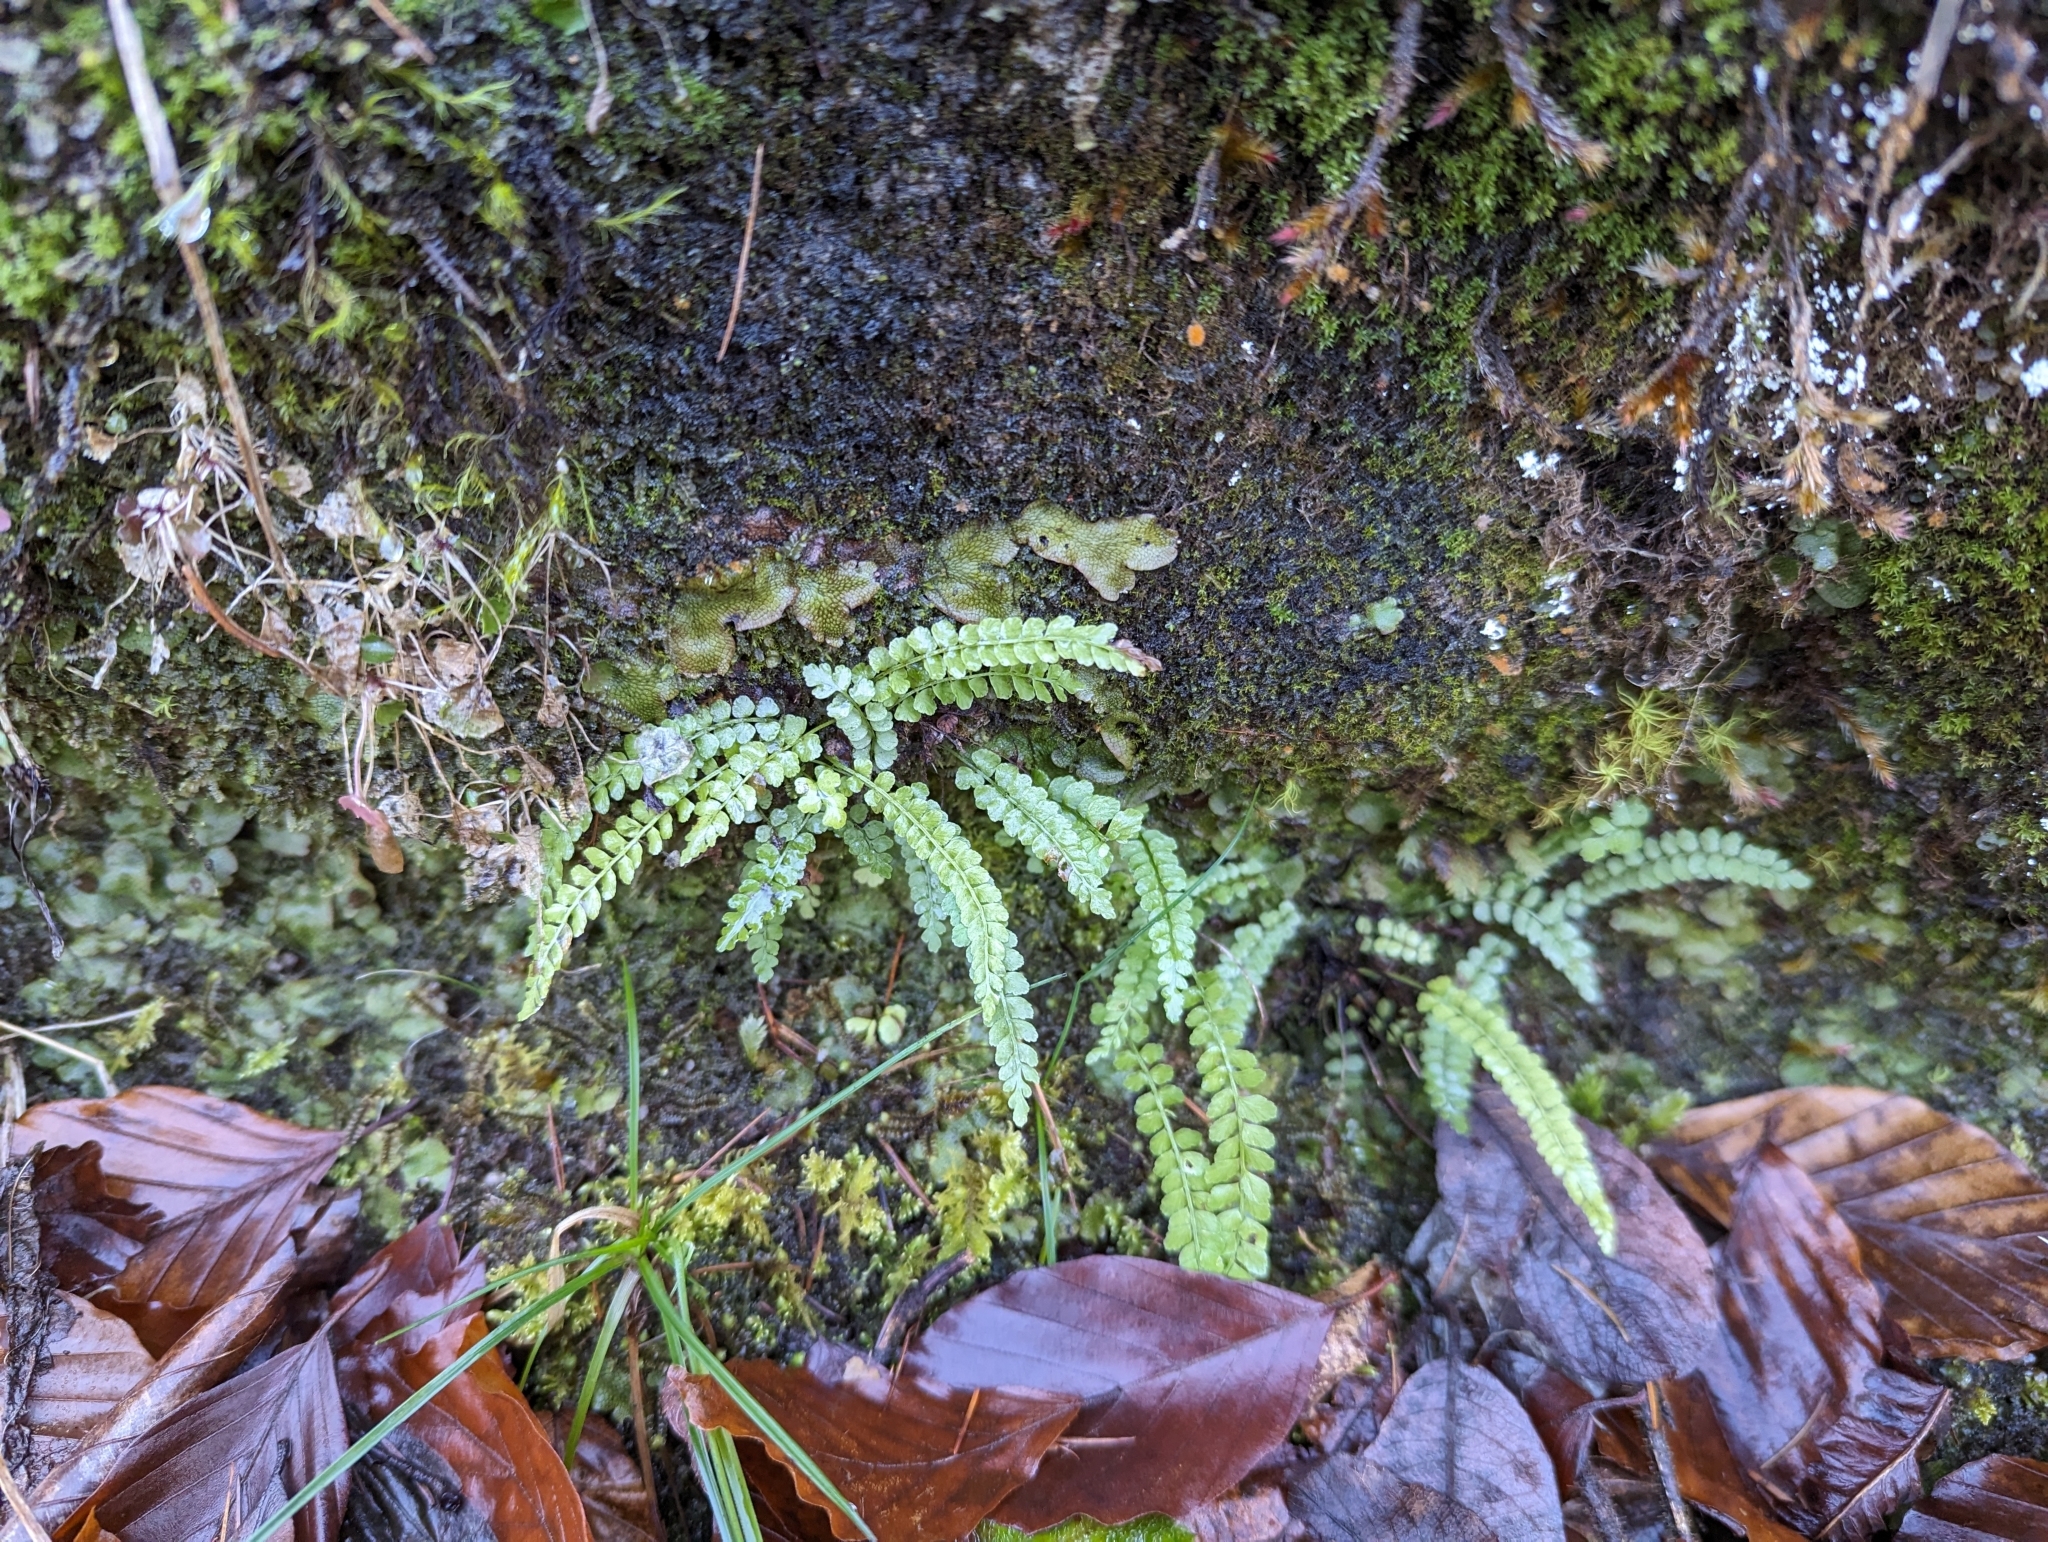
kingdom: Plantae
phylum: Tracheophyta
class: Polypodiopsida
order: Polypodiales
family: Aspleniaceae
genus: Asplenium
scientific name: Asplenium viride
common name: Green spleenwort
